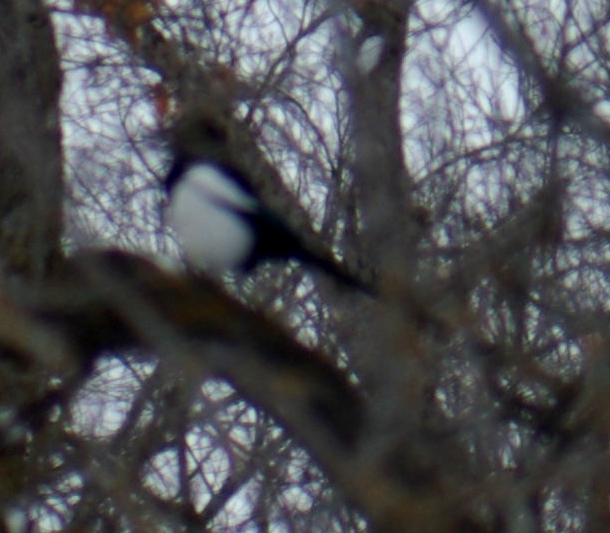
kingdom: Animalia
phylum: Chordata
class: Aves
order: Passeriformes
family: Corvidae
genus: Pica
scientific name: Pica hudsonia
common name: Black-billed magpie
